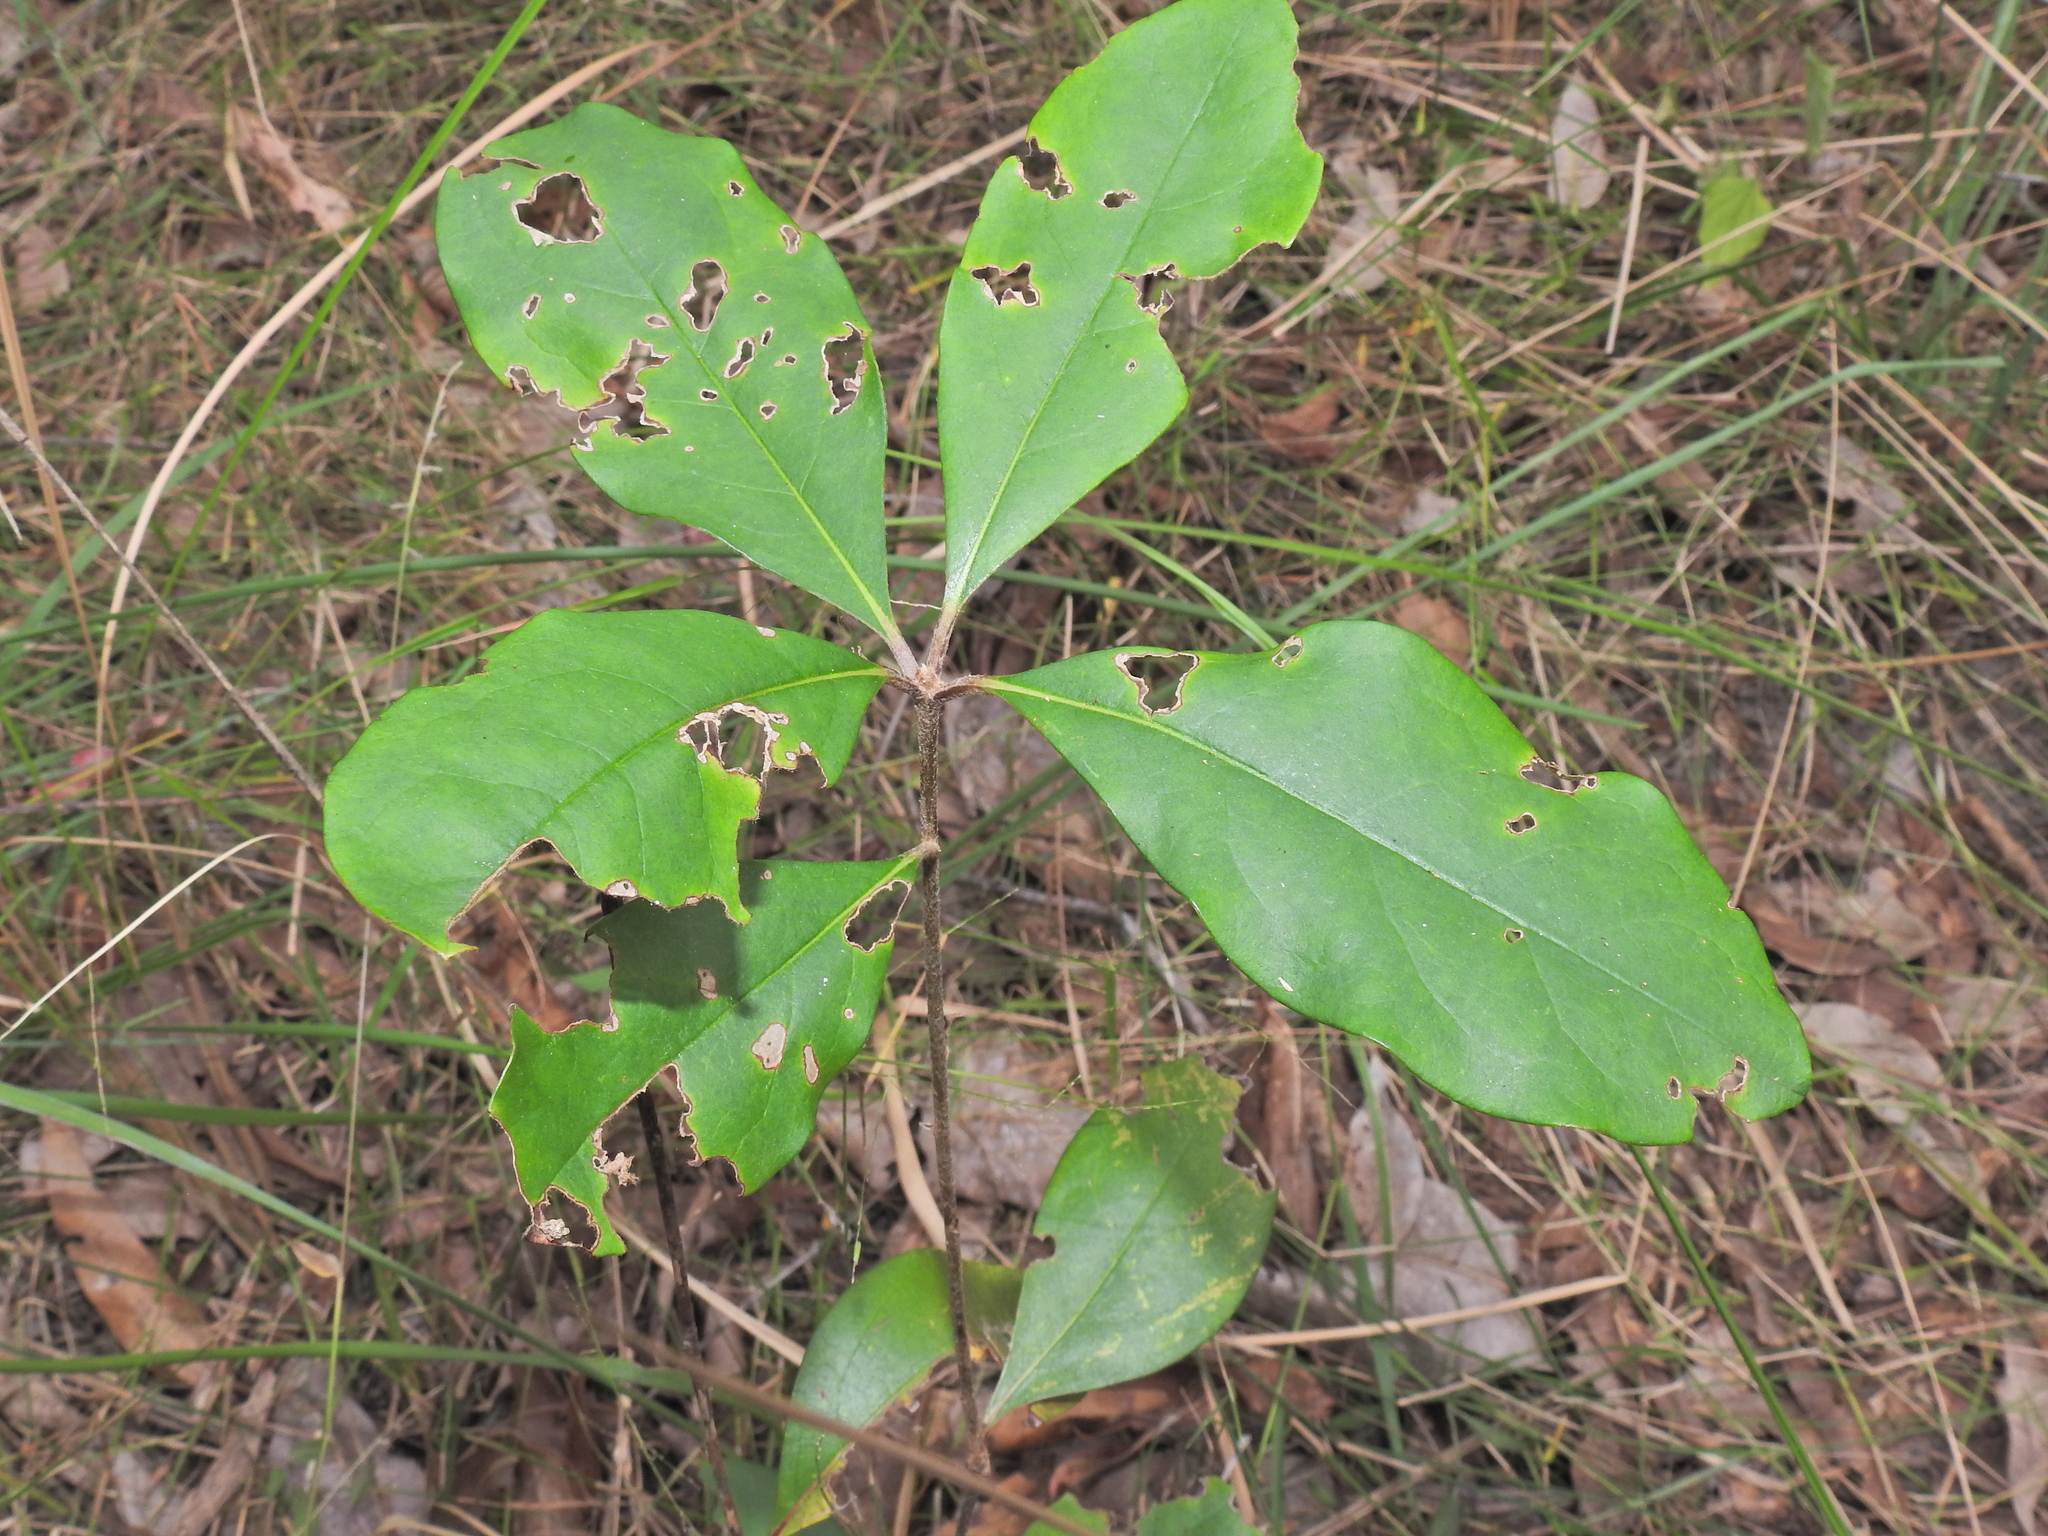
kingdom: Plantae
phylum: Tracheophyta
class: Magnoliopsida
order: Apiales
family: Pittosporaceae
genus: Pittosporum
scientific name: Pittosporum revolutum
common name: Brisbane-laurel
